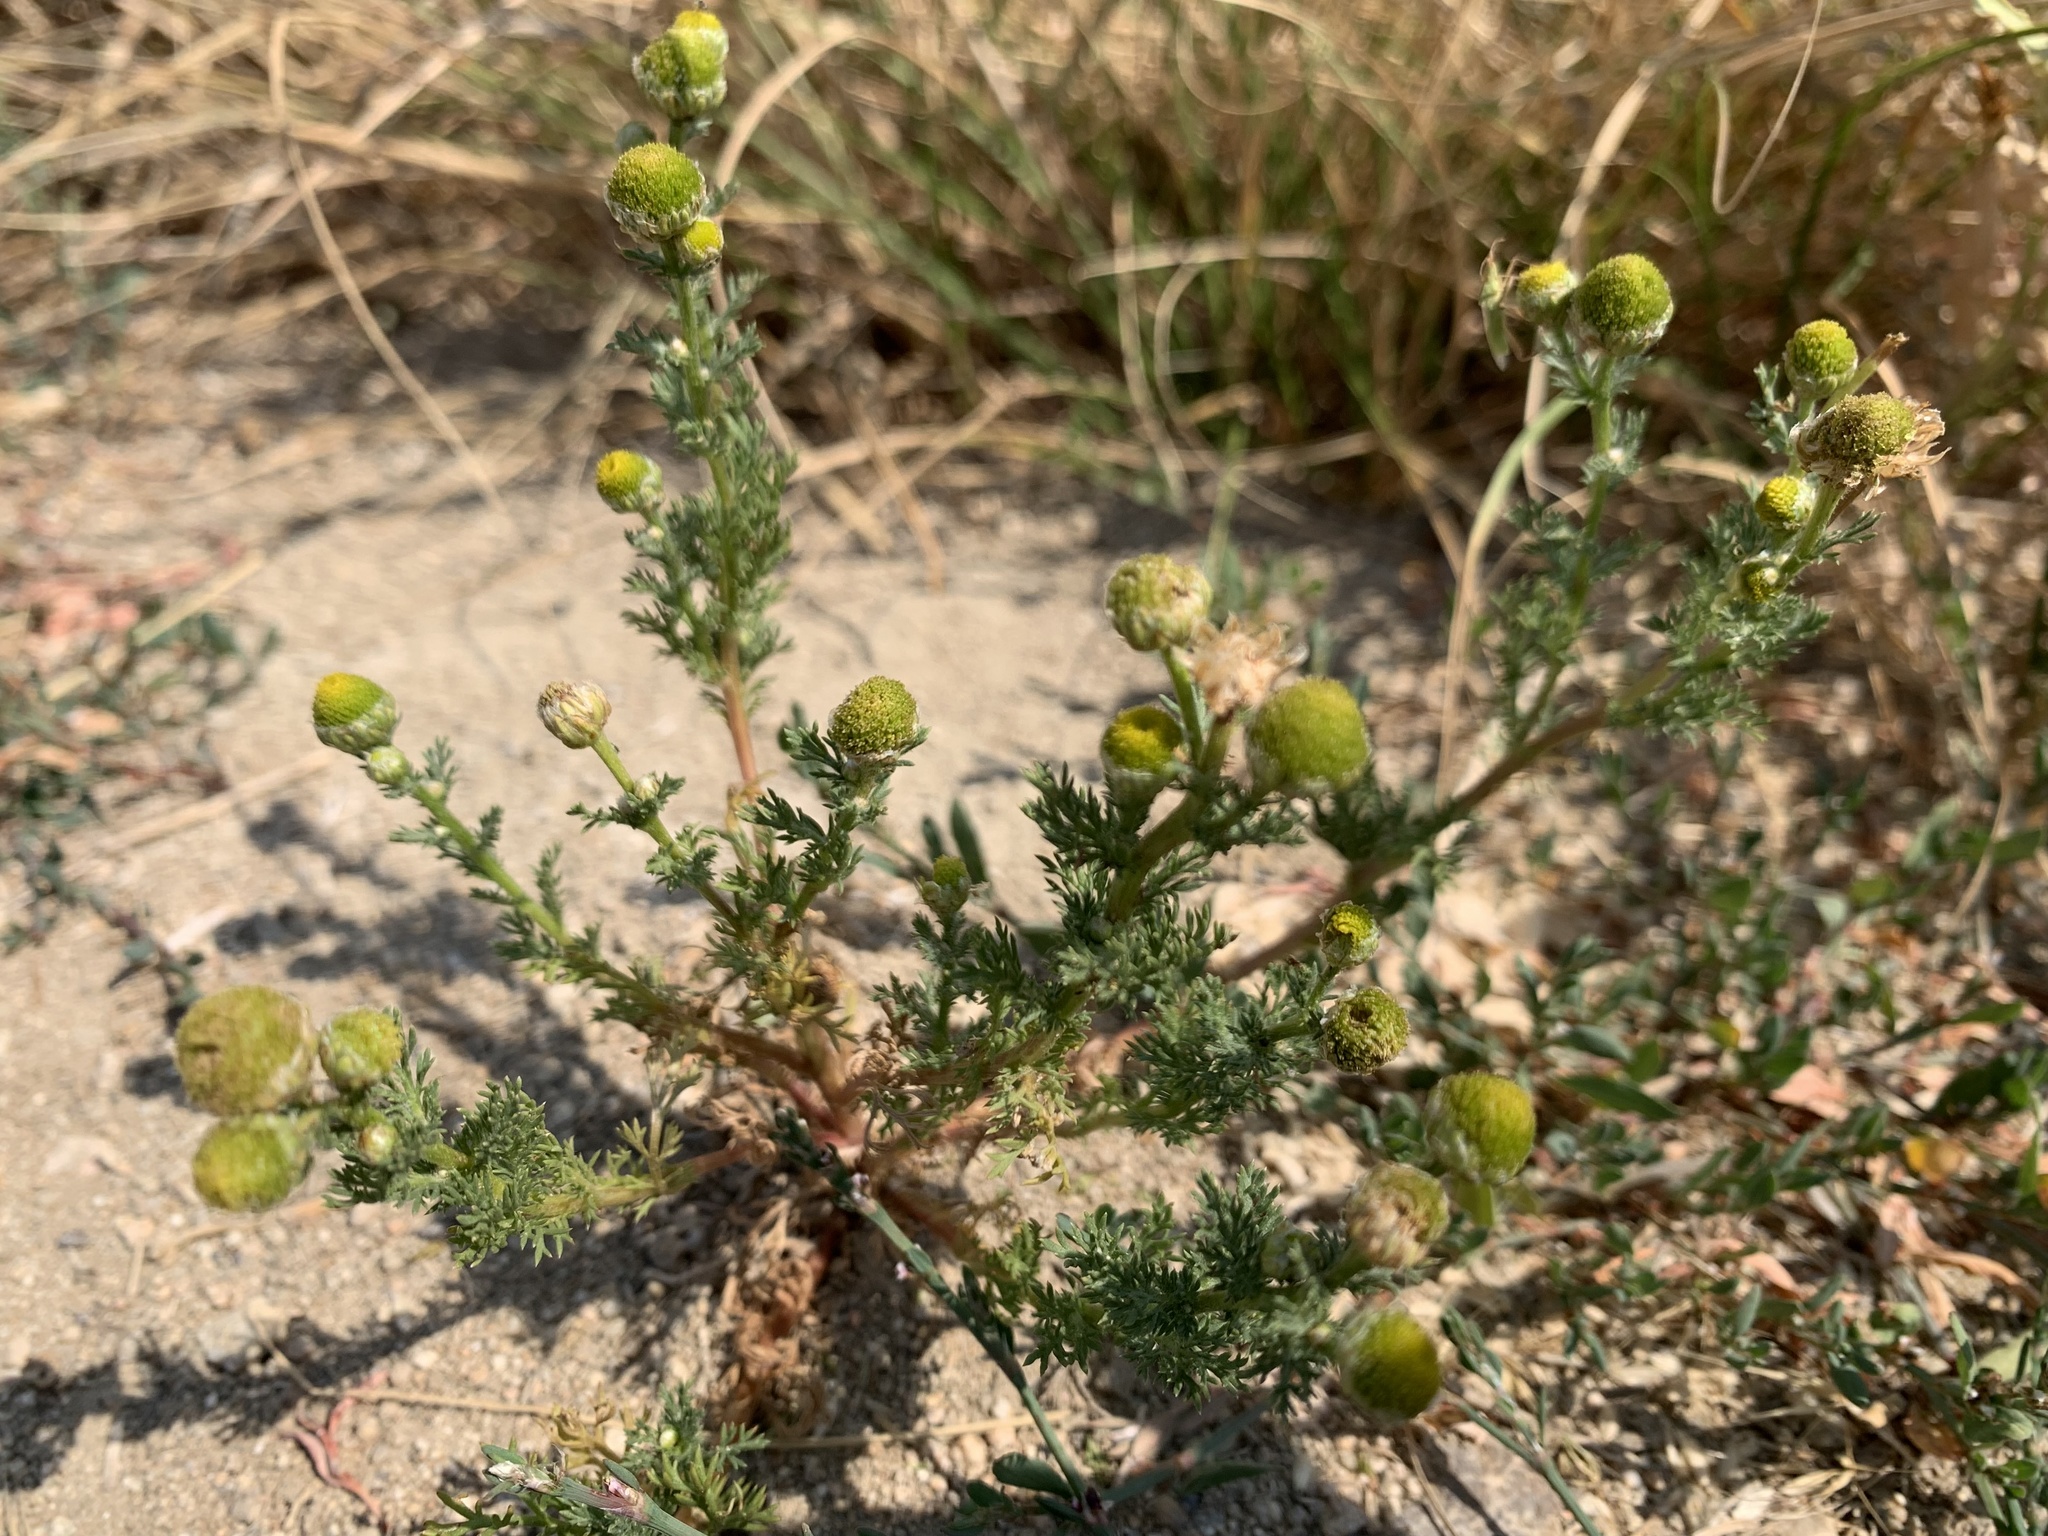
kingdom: Plantae
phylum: Tracheophyta
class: Magnoliopsida
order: Asterales
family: Asteraceae
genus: Matricaria
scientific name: Matricaria discoidea
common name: Disc mayweed
